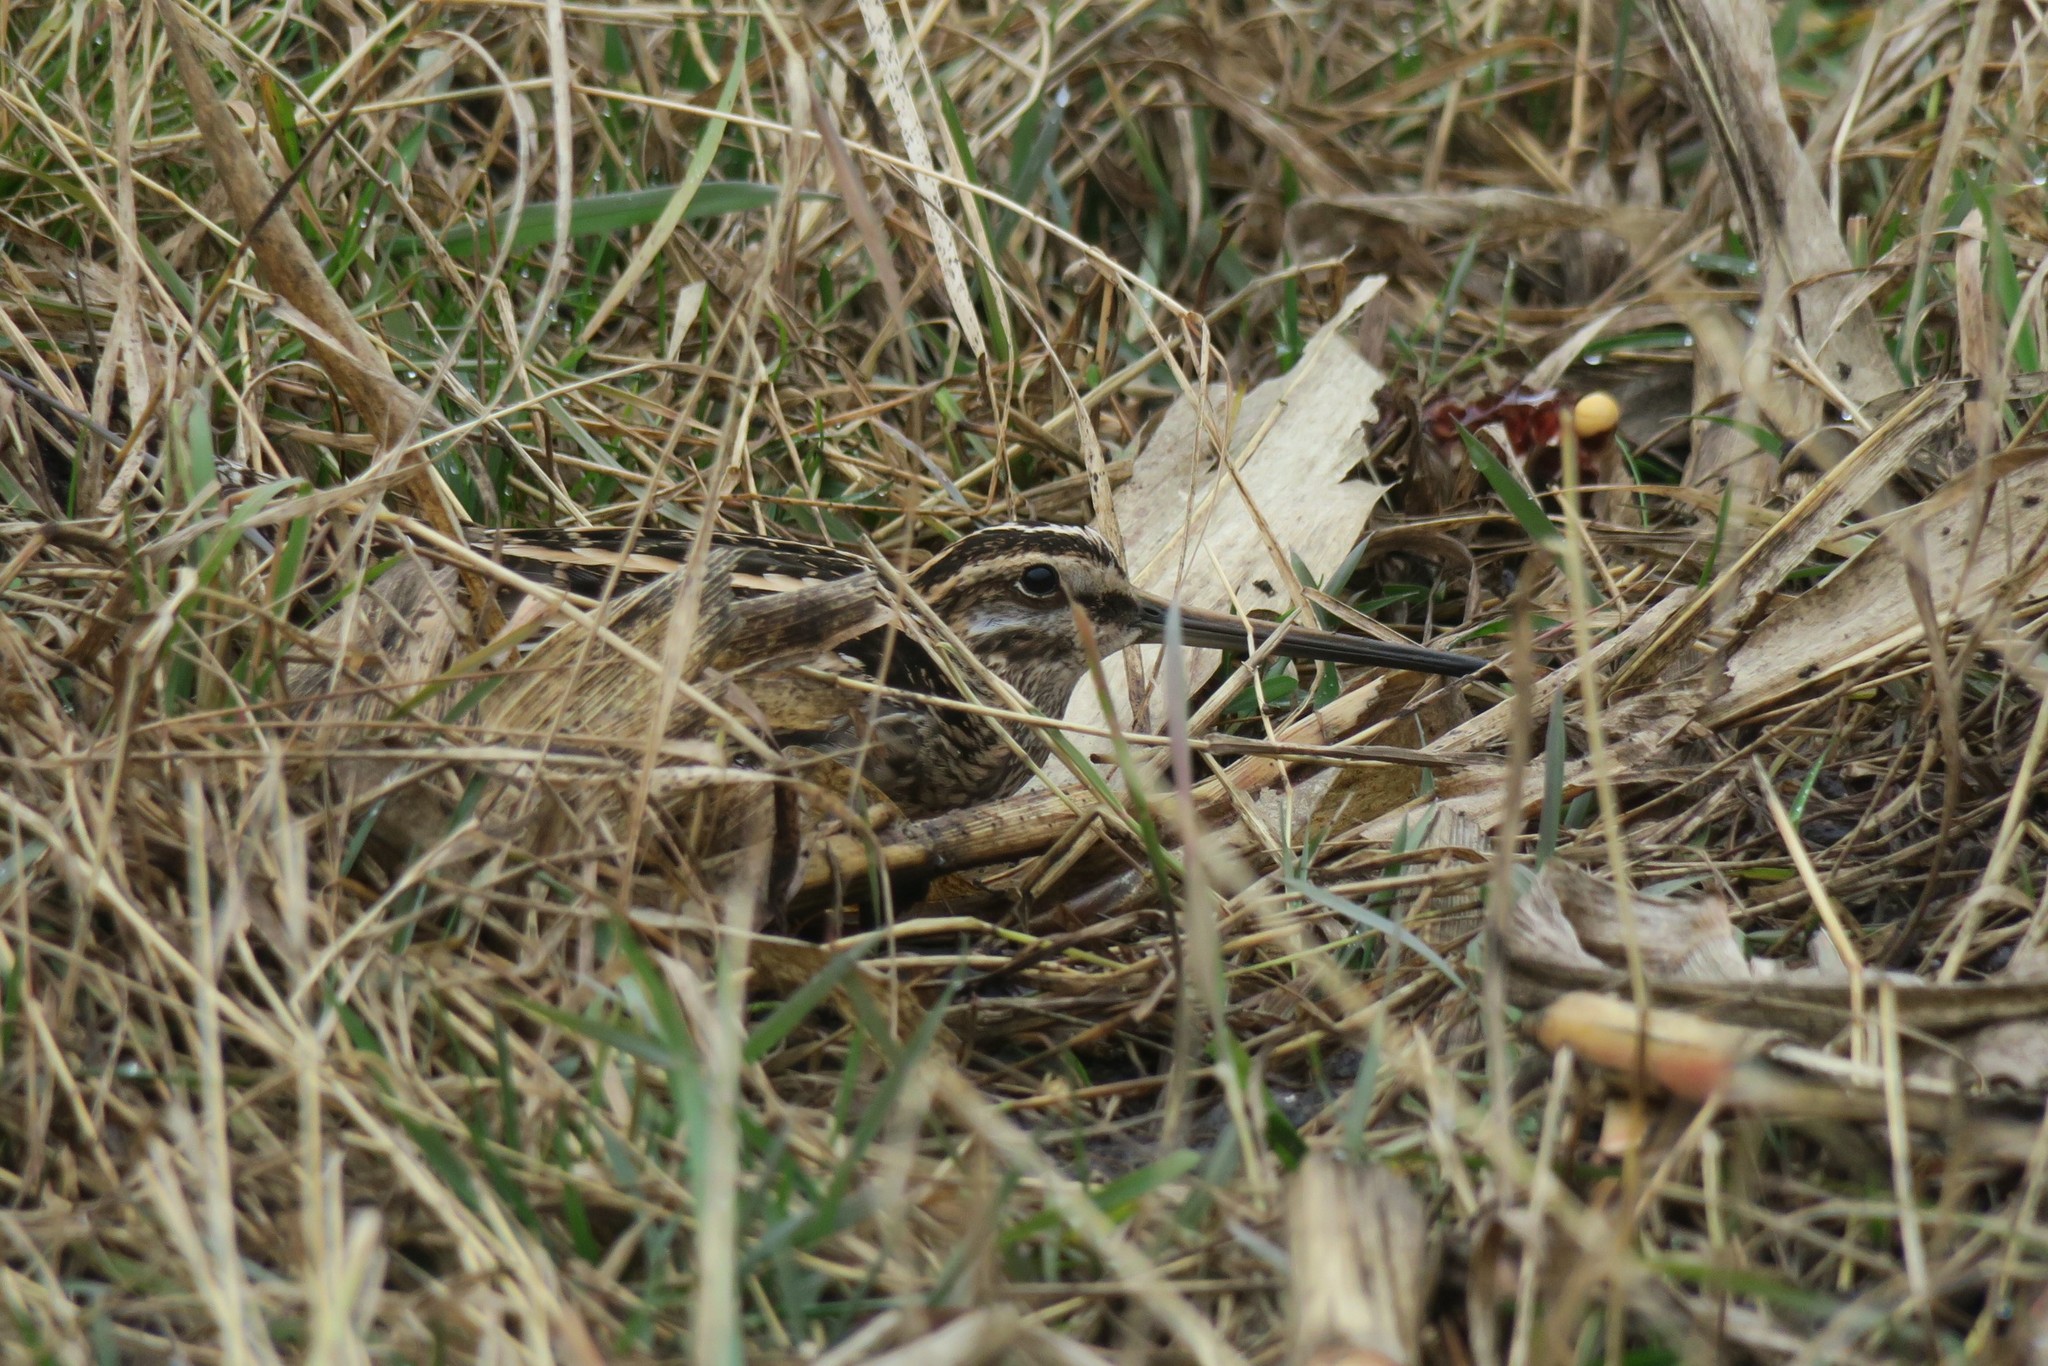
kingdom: Animalia
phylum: Chordata
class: Aves
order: Charadriiformes
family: Scolopacidae
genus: Gallinago
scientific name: Gallinago gallinago
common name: Common snipe
